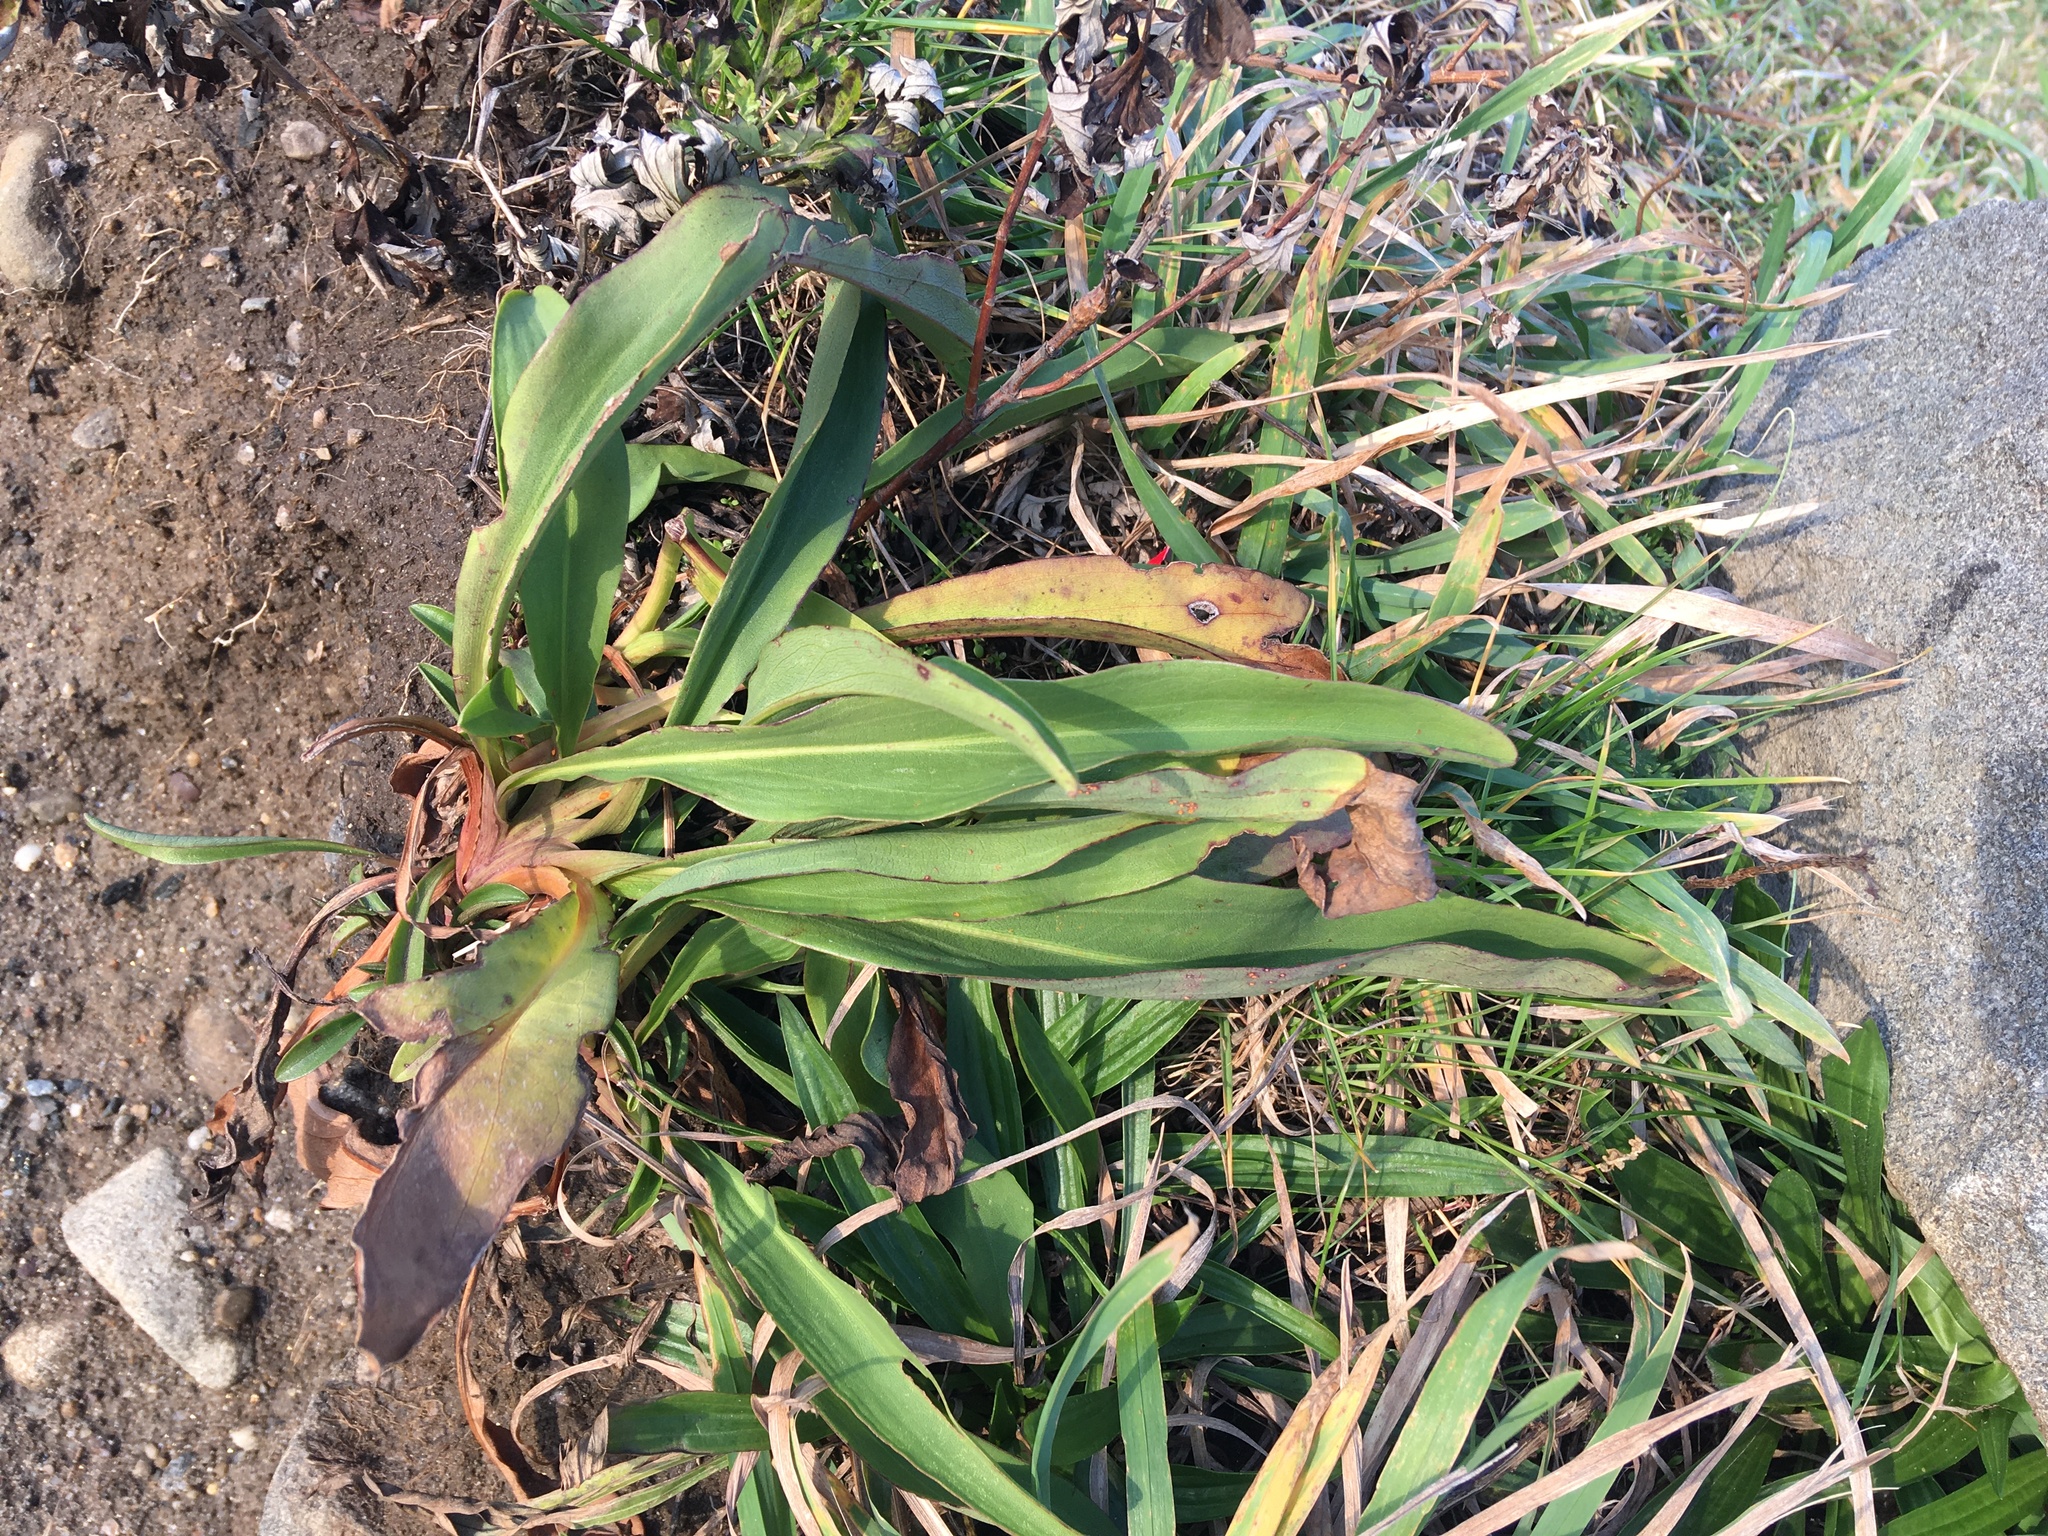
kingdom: Plantae
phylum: Tracheophyta
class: Magnoliopsida
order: Asterales
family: Asteraceae
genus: Solidago
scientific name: Solidago sempervirens
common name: Salt-marsh goldenrod
